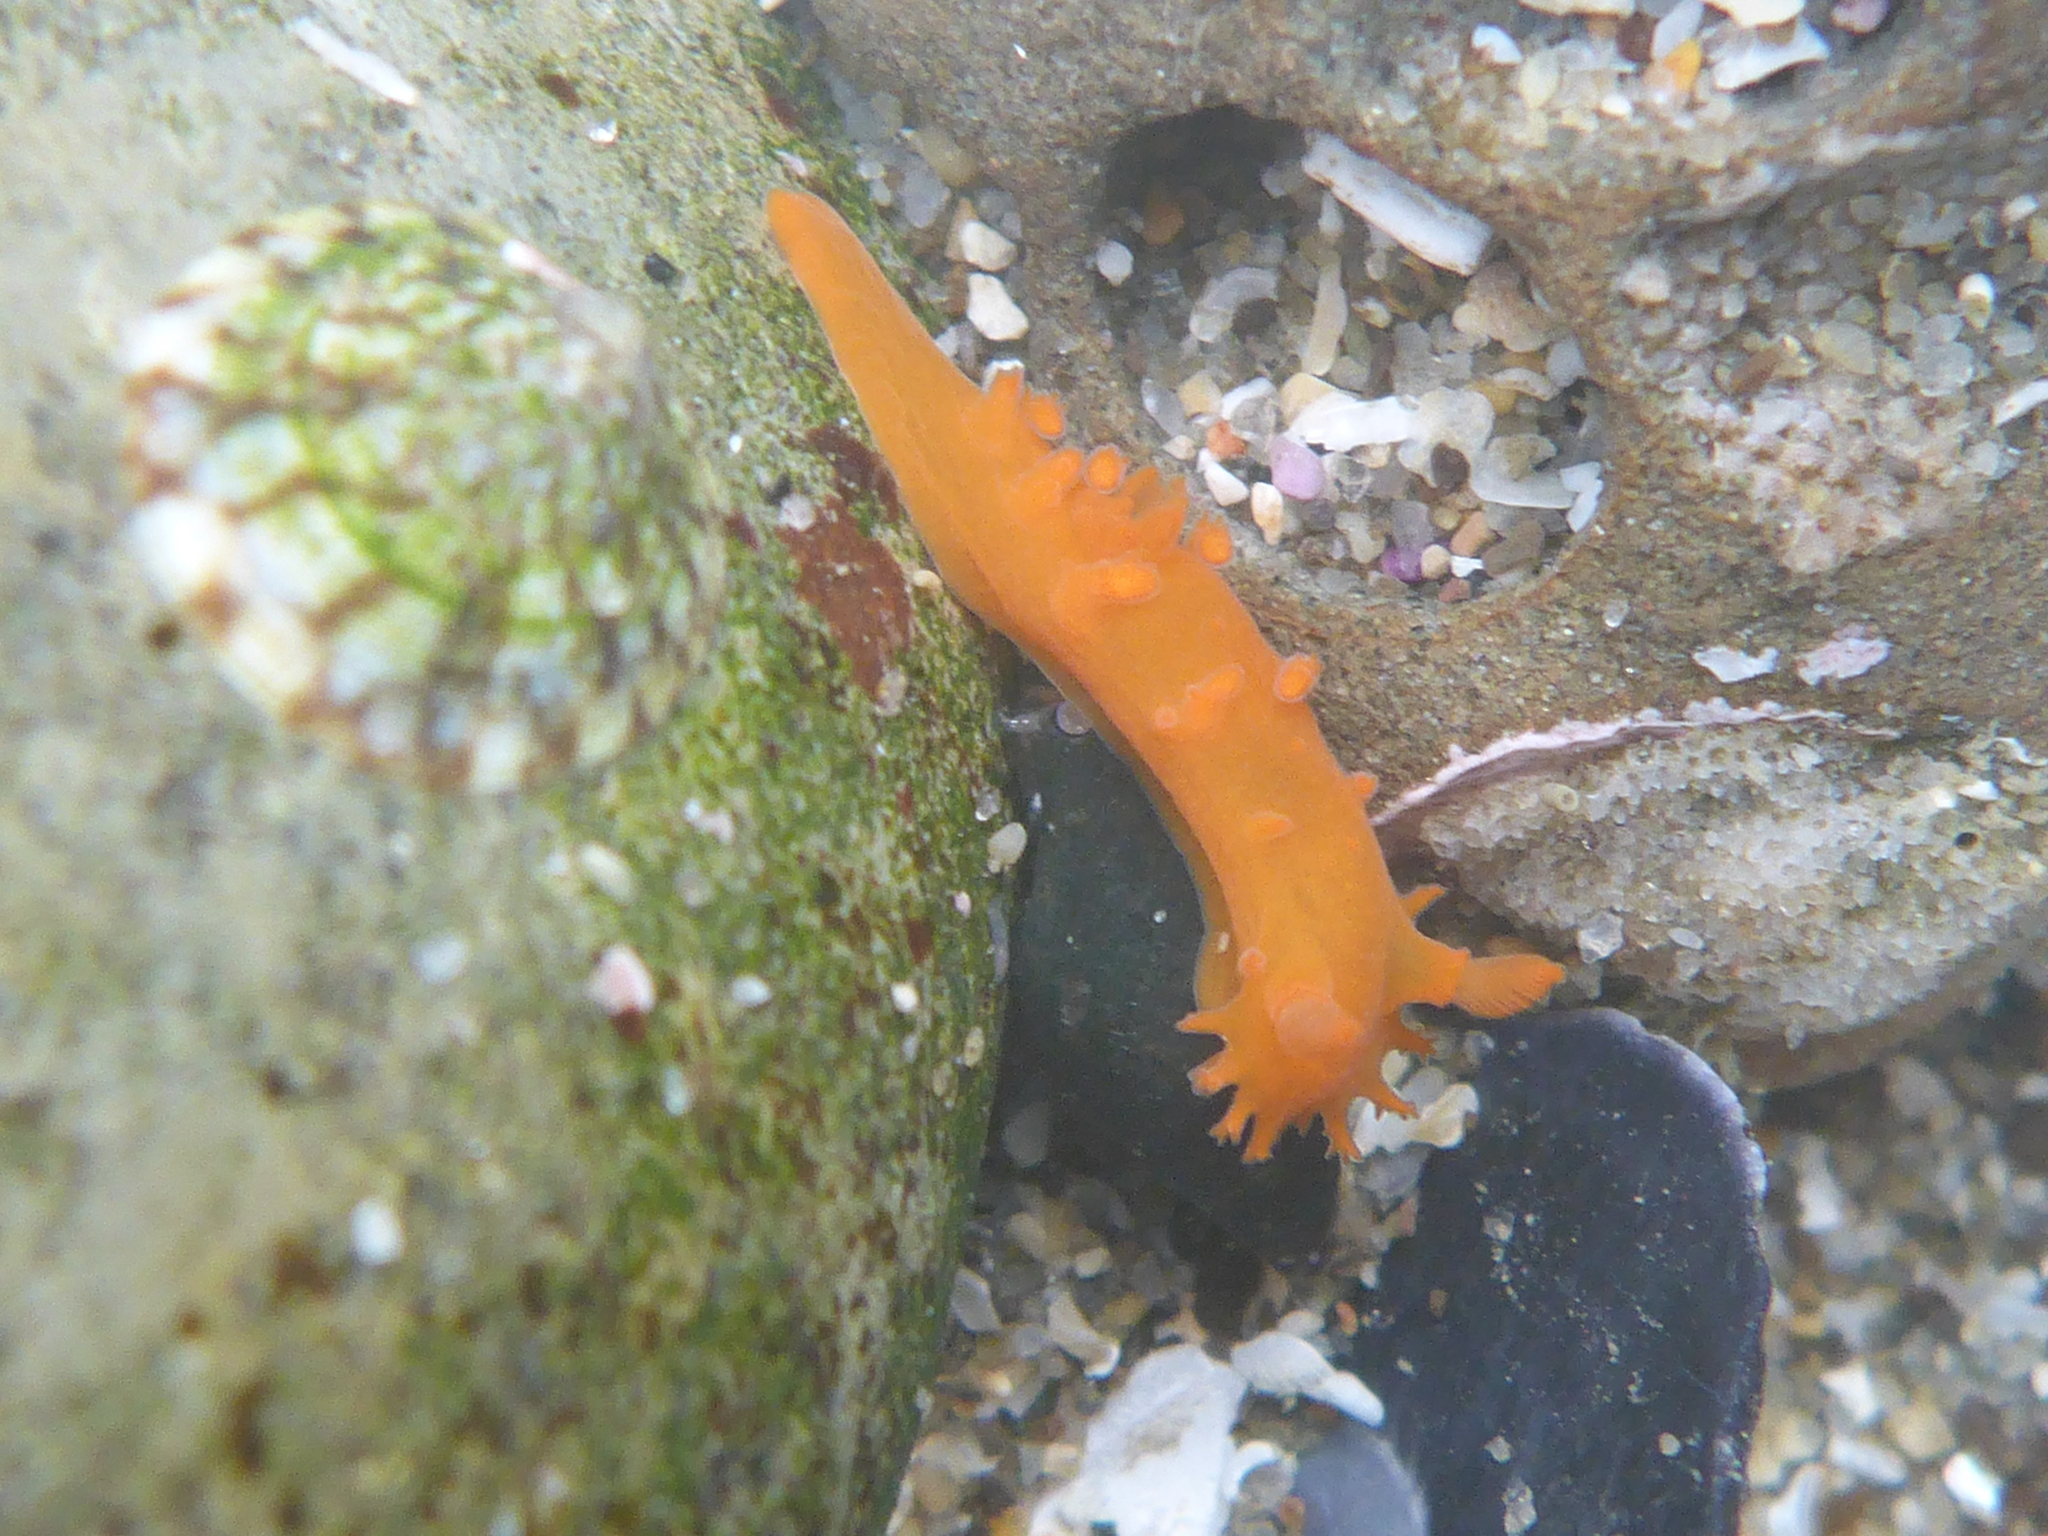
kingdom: Animalia
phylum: Mollusca
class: Gastropoda
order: Nudibranchia
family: Polyceridae
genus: Triopha
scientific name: Triopha maculata
